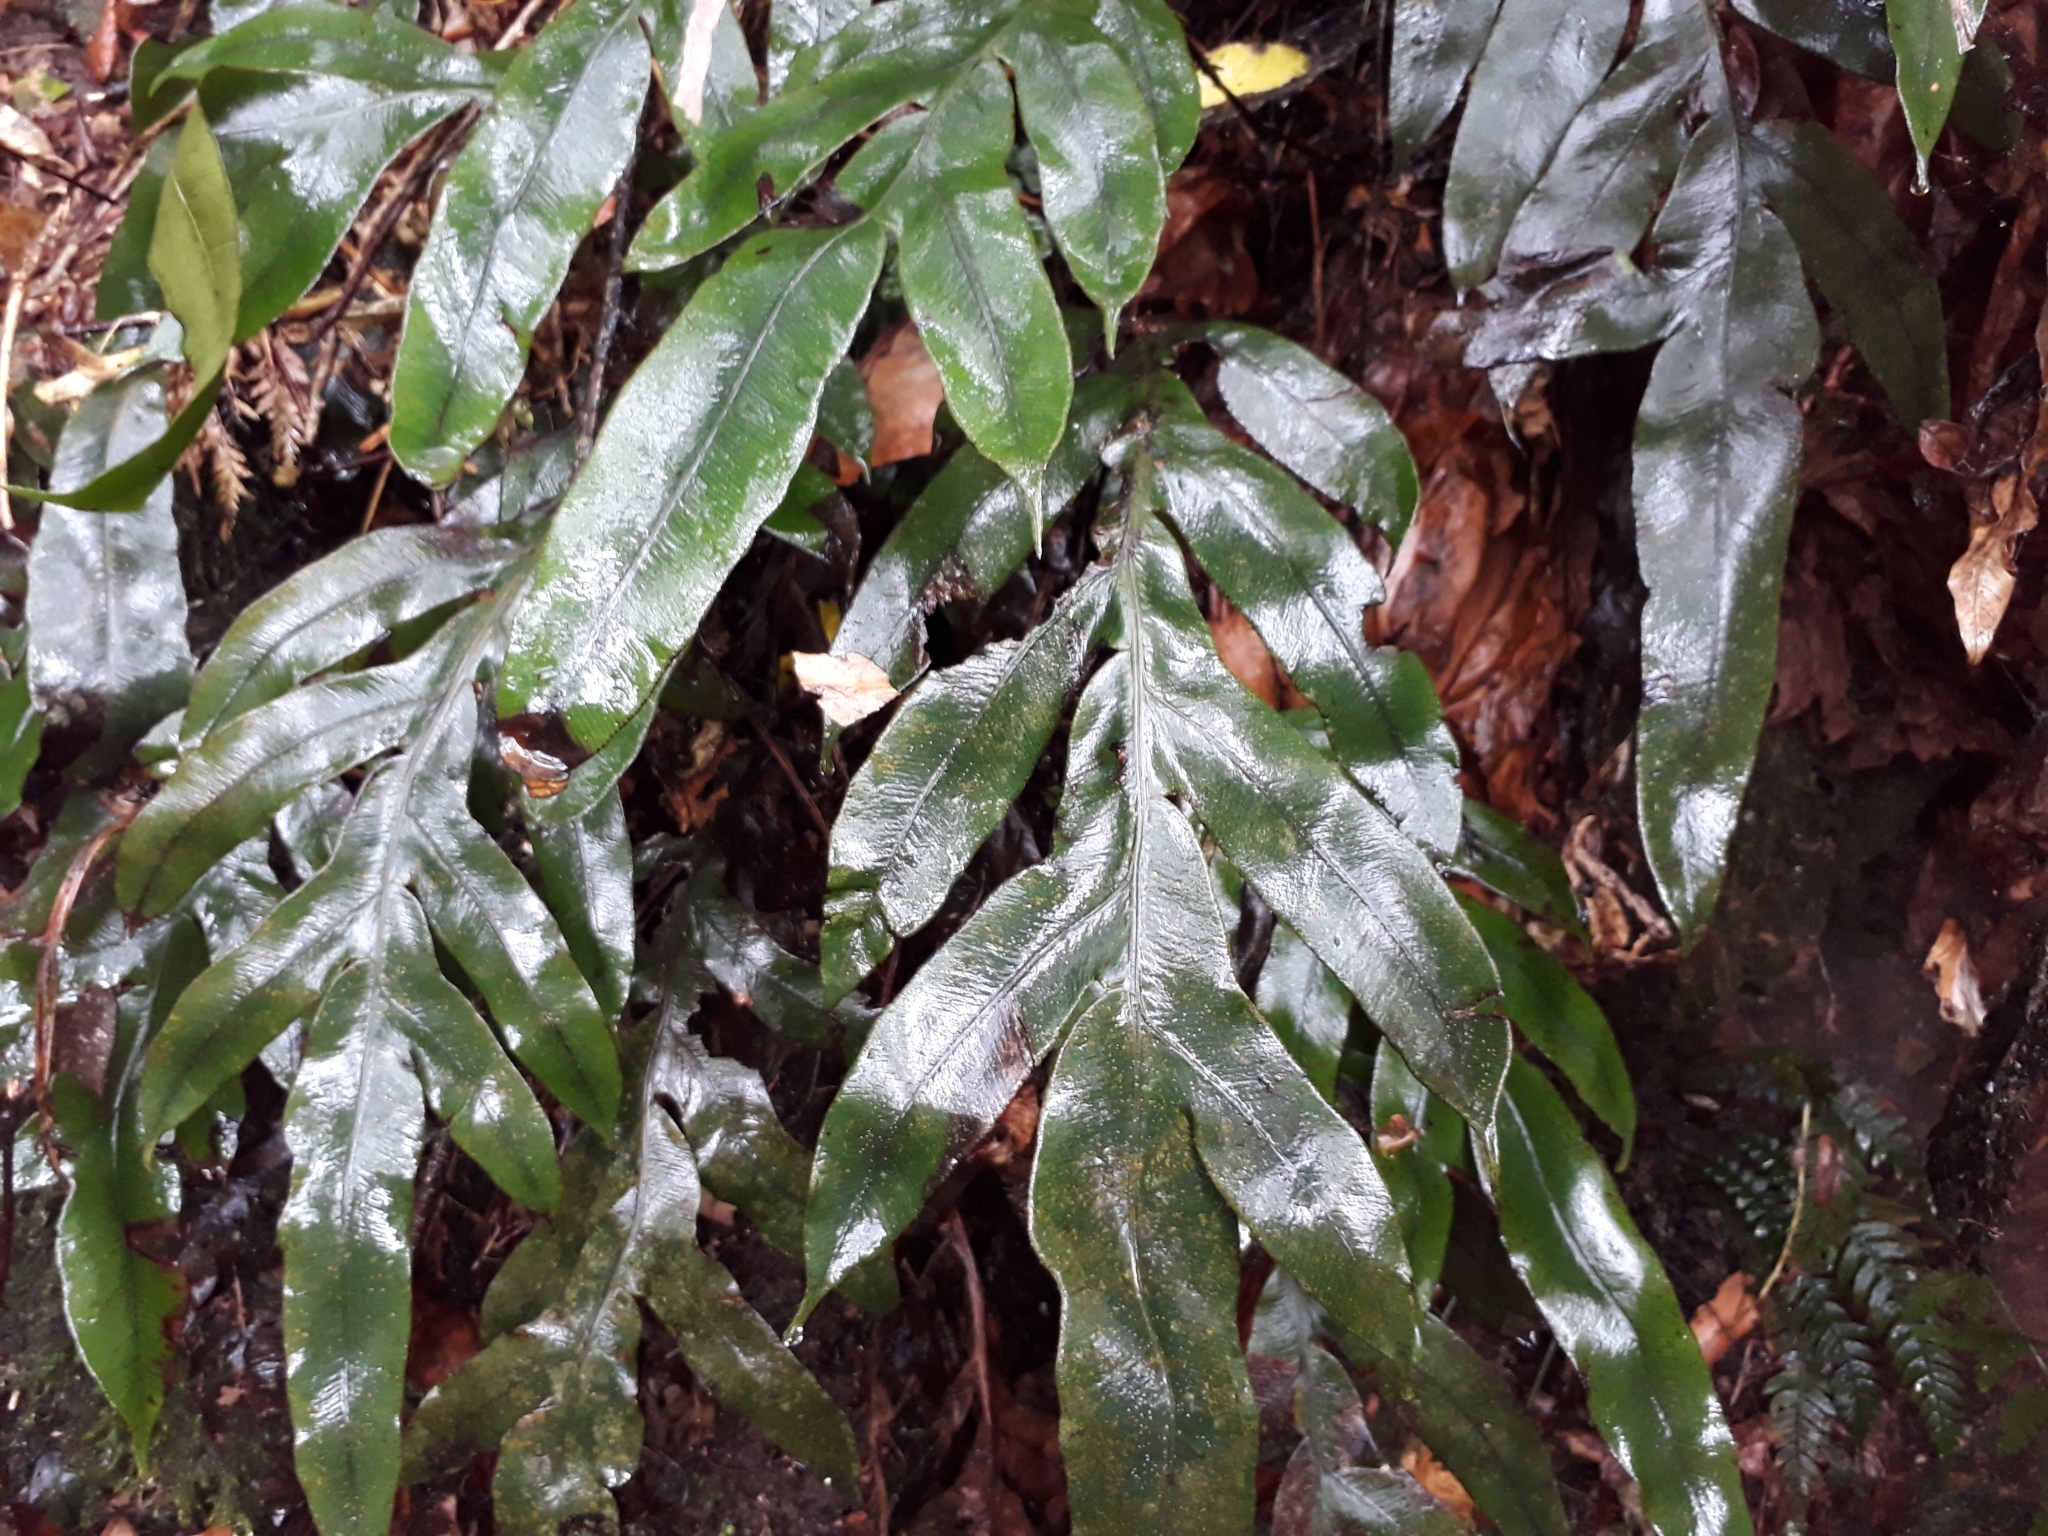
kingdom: Plantae
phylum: Tracheophyta
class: Polypodiopsida
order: Polypodiales
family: Blechnaceae
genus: Austroblechnum
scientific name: Austroblechnum colensoi
